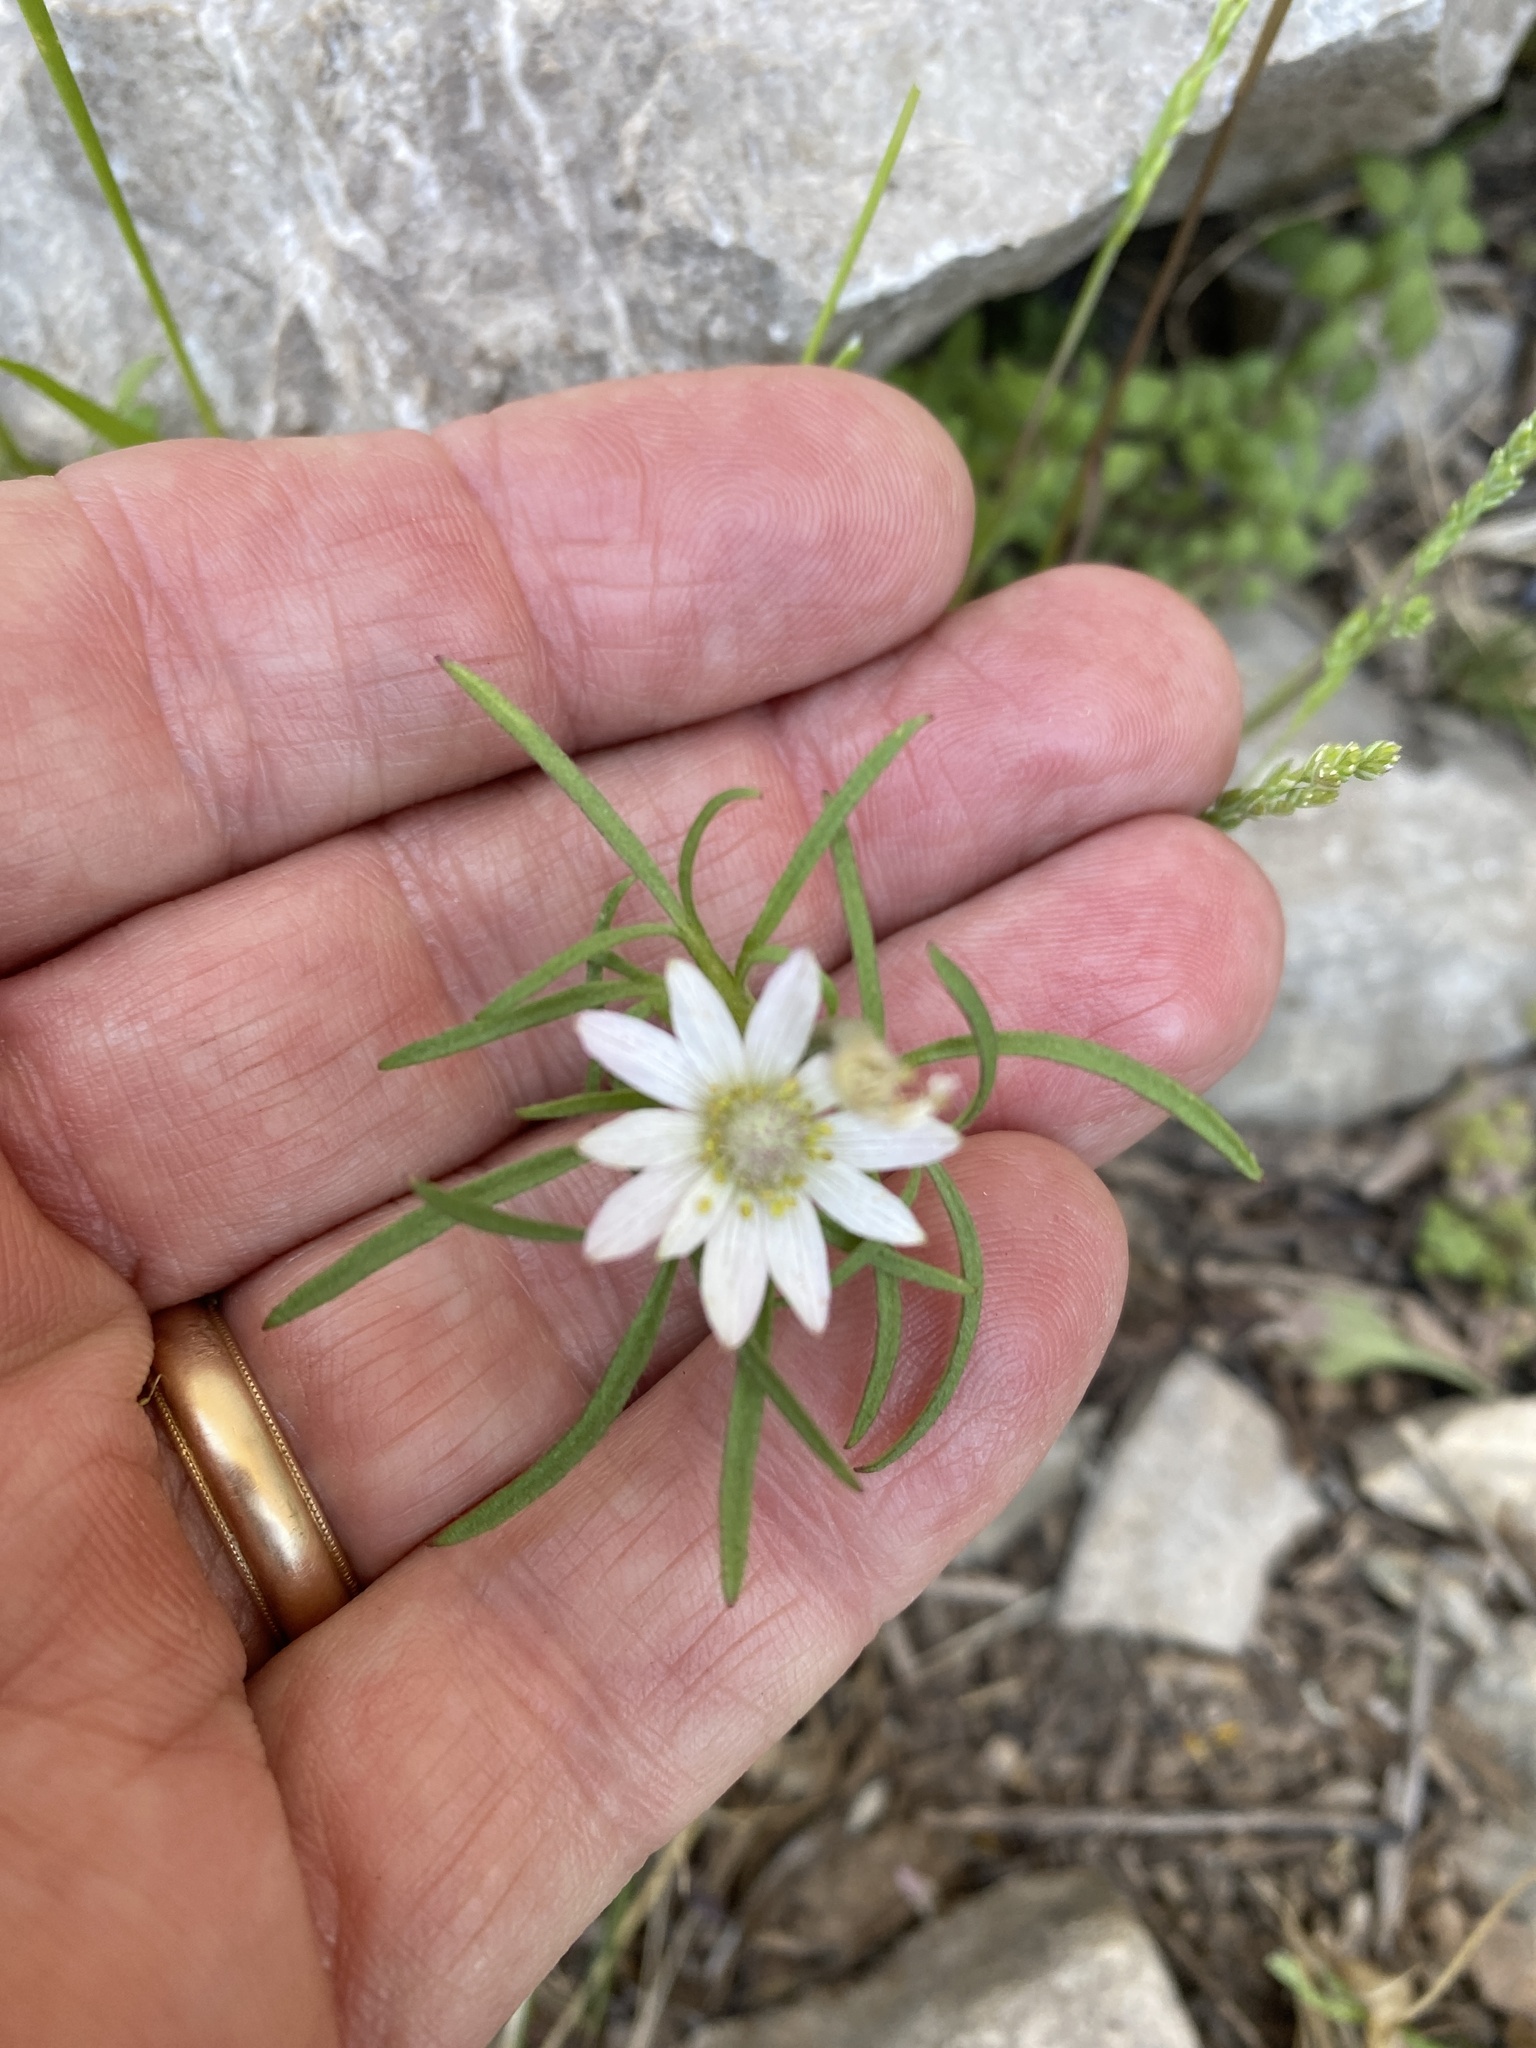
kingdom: Plantae
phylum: Tracheophyta
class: Magnoliopsida
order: Ranunculales
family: Ranunculaceae
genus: Anemone
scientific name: Anemone tuberosa
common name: Desert anemone
